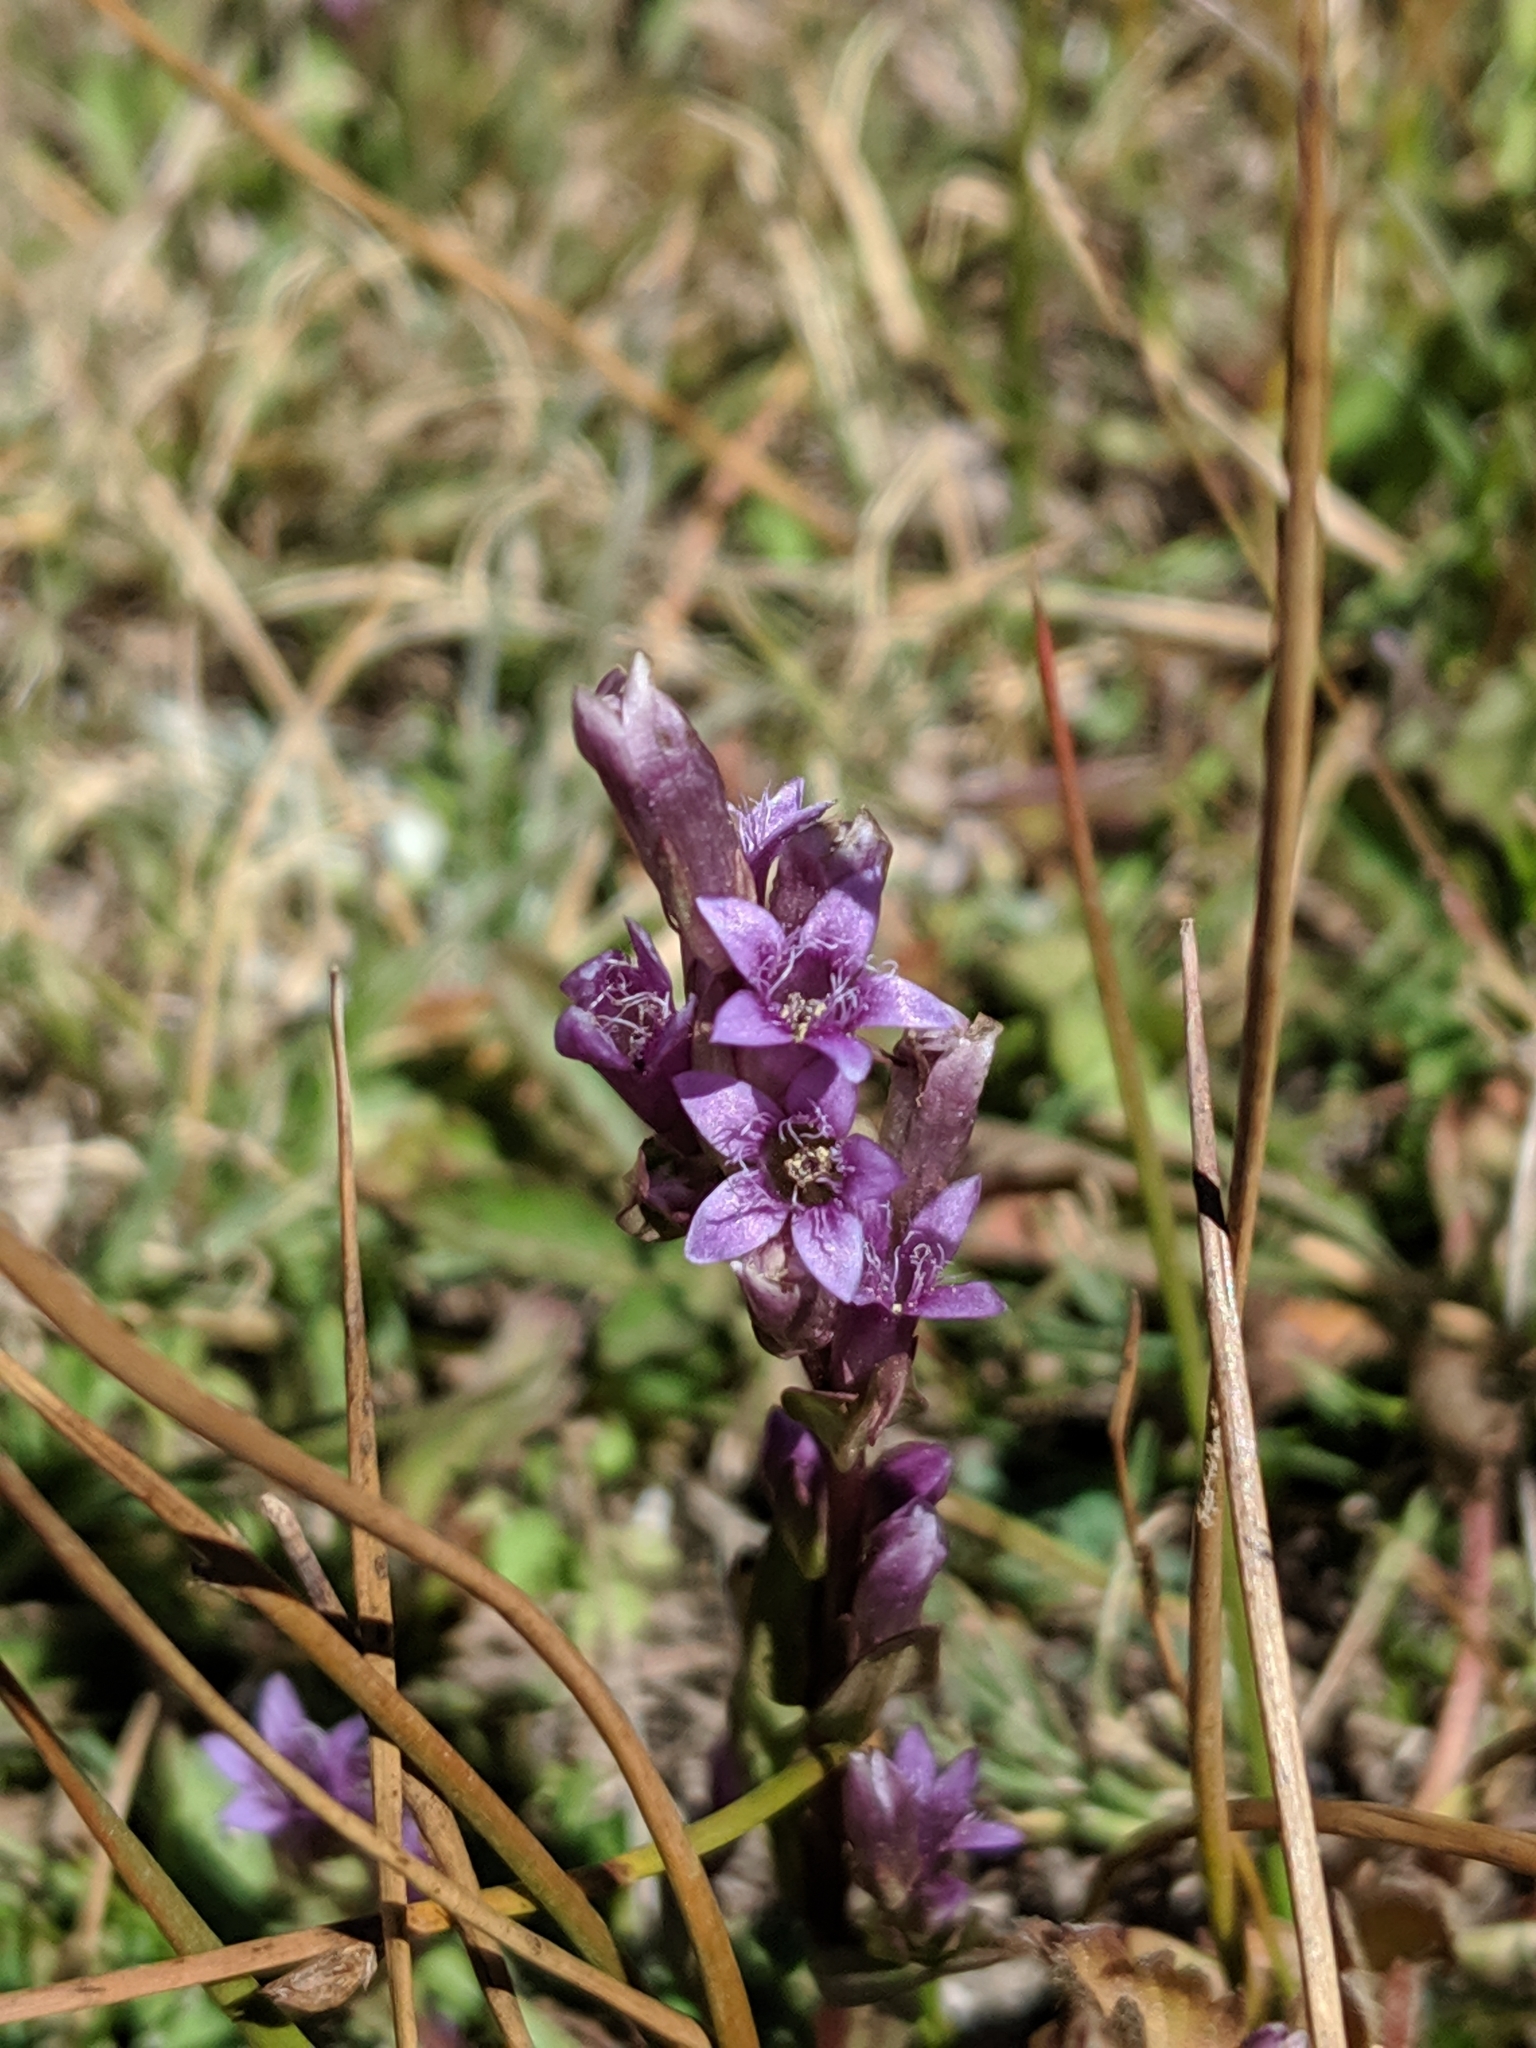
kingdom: Plantae
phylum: Tracheophyta
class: Magnoliopsida
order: Gentianales
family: Gentianaceae
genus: Gentianella
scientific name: Gentianella amarella
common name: Autumn gentian
